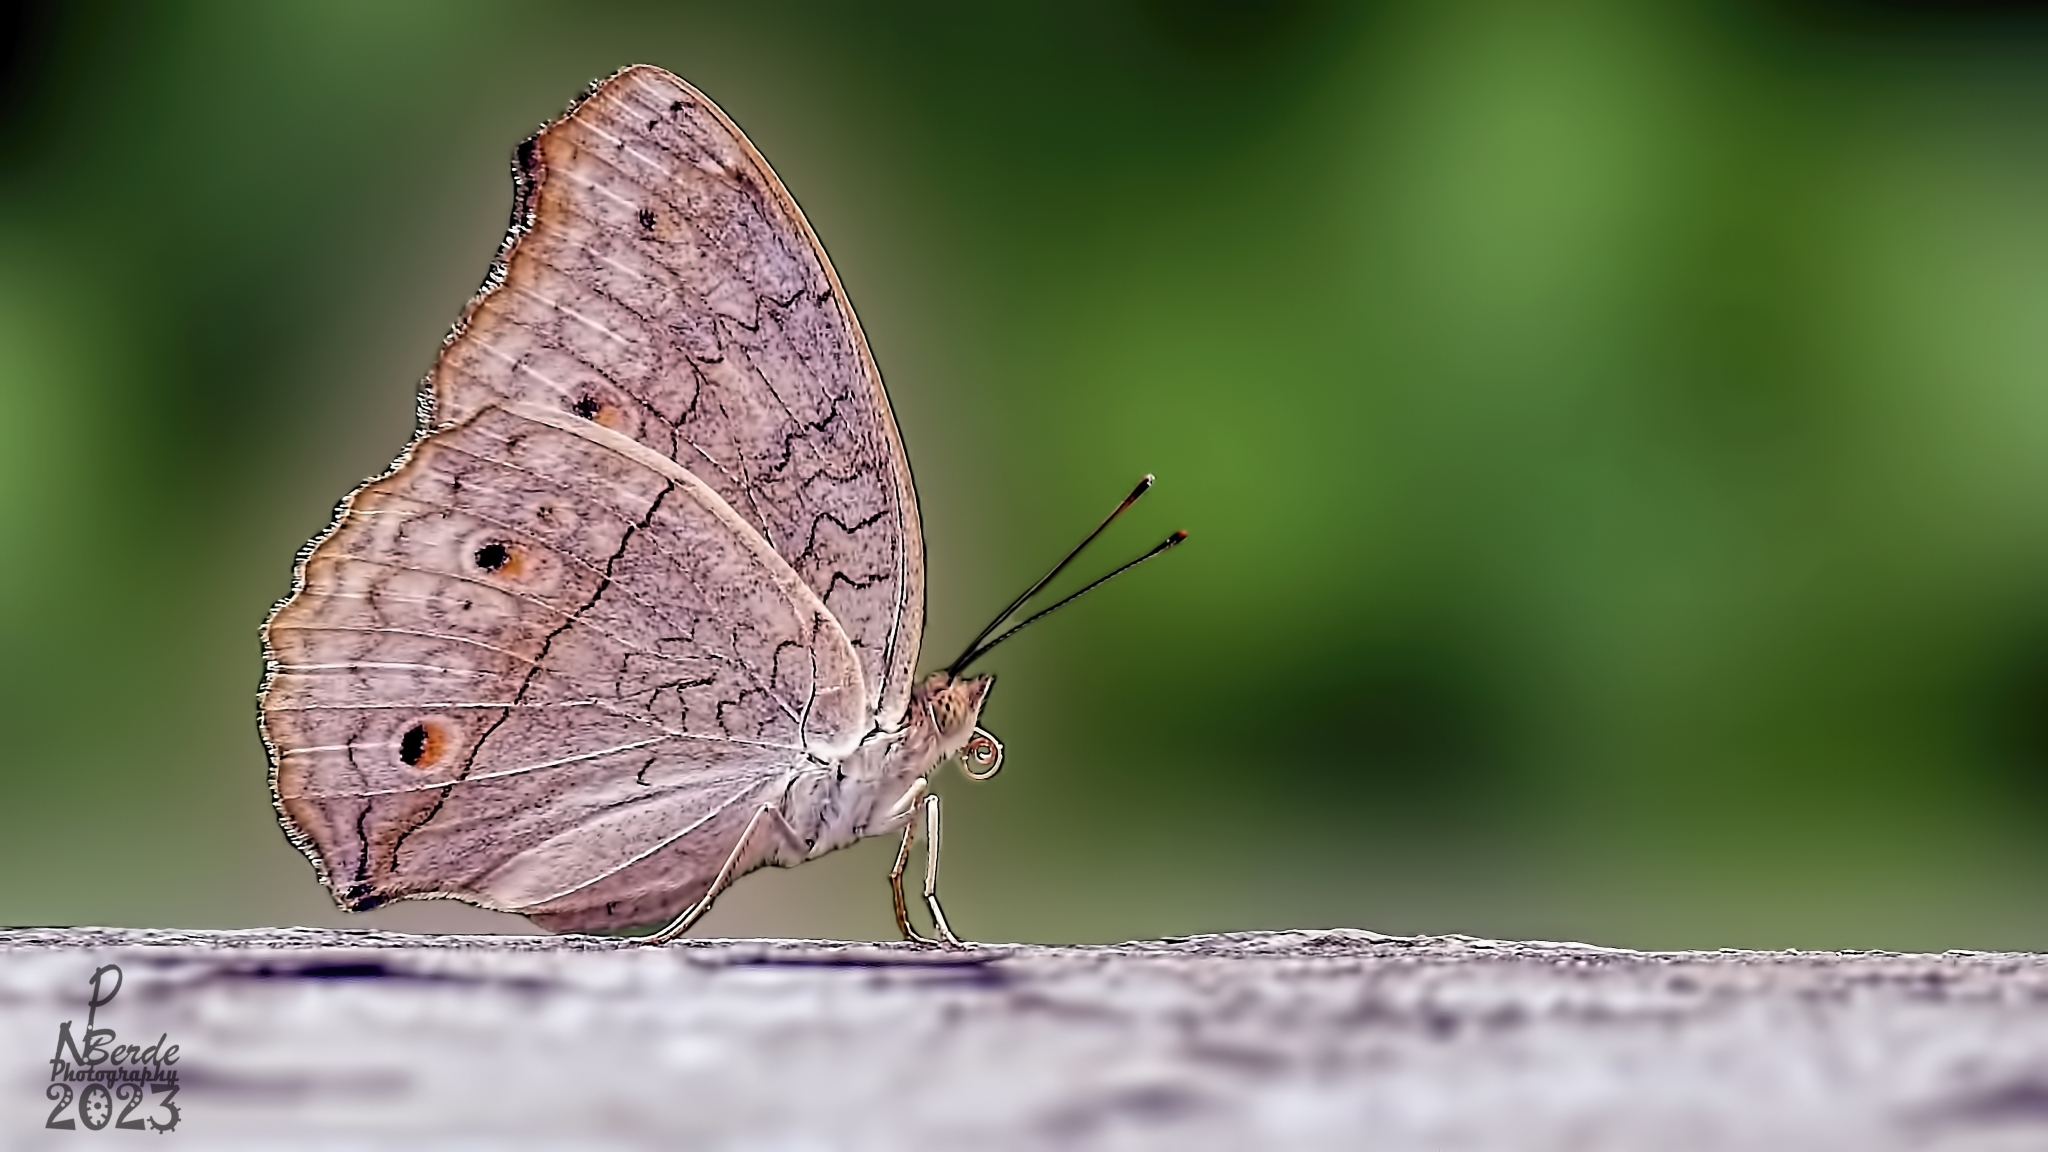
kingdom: Animalia
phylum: Arthropoda
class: Insecta
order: Lepidoptera
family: Nymphalidae
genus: Junonia
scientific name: Junonia atlites
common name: Grey pansy
